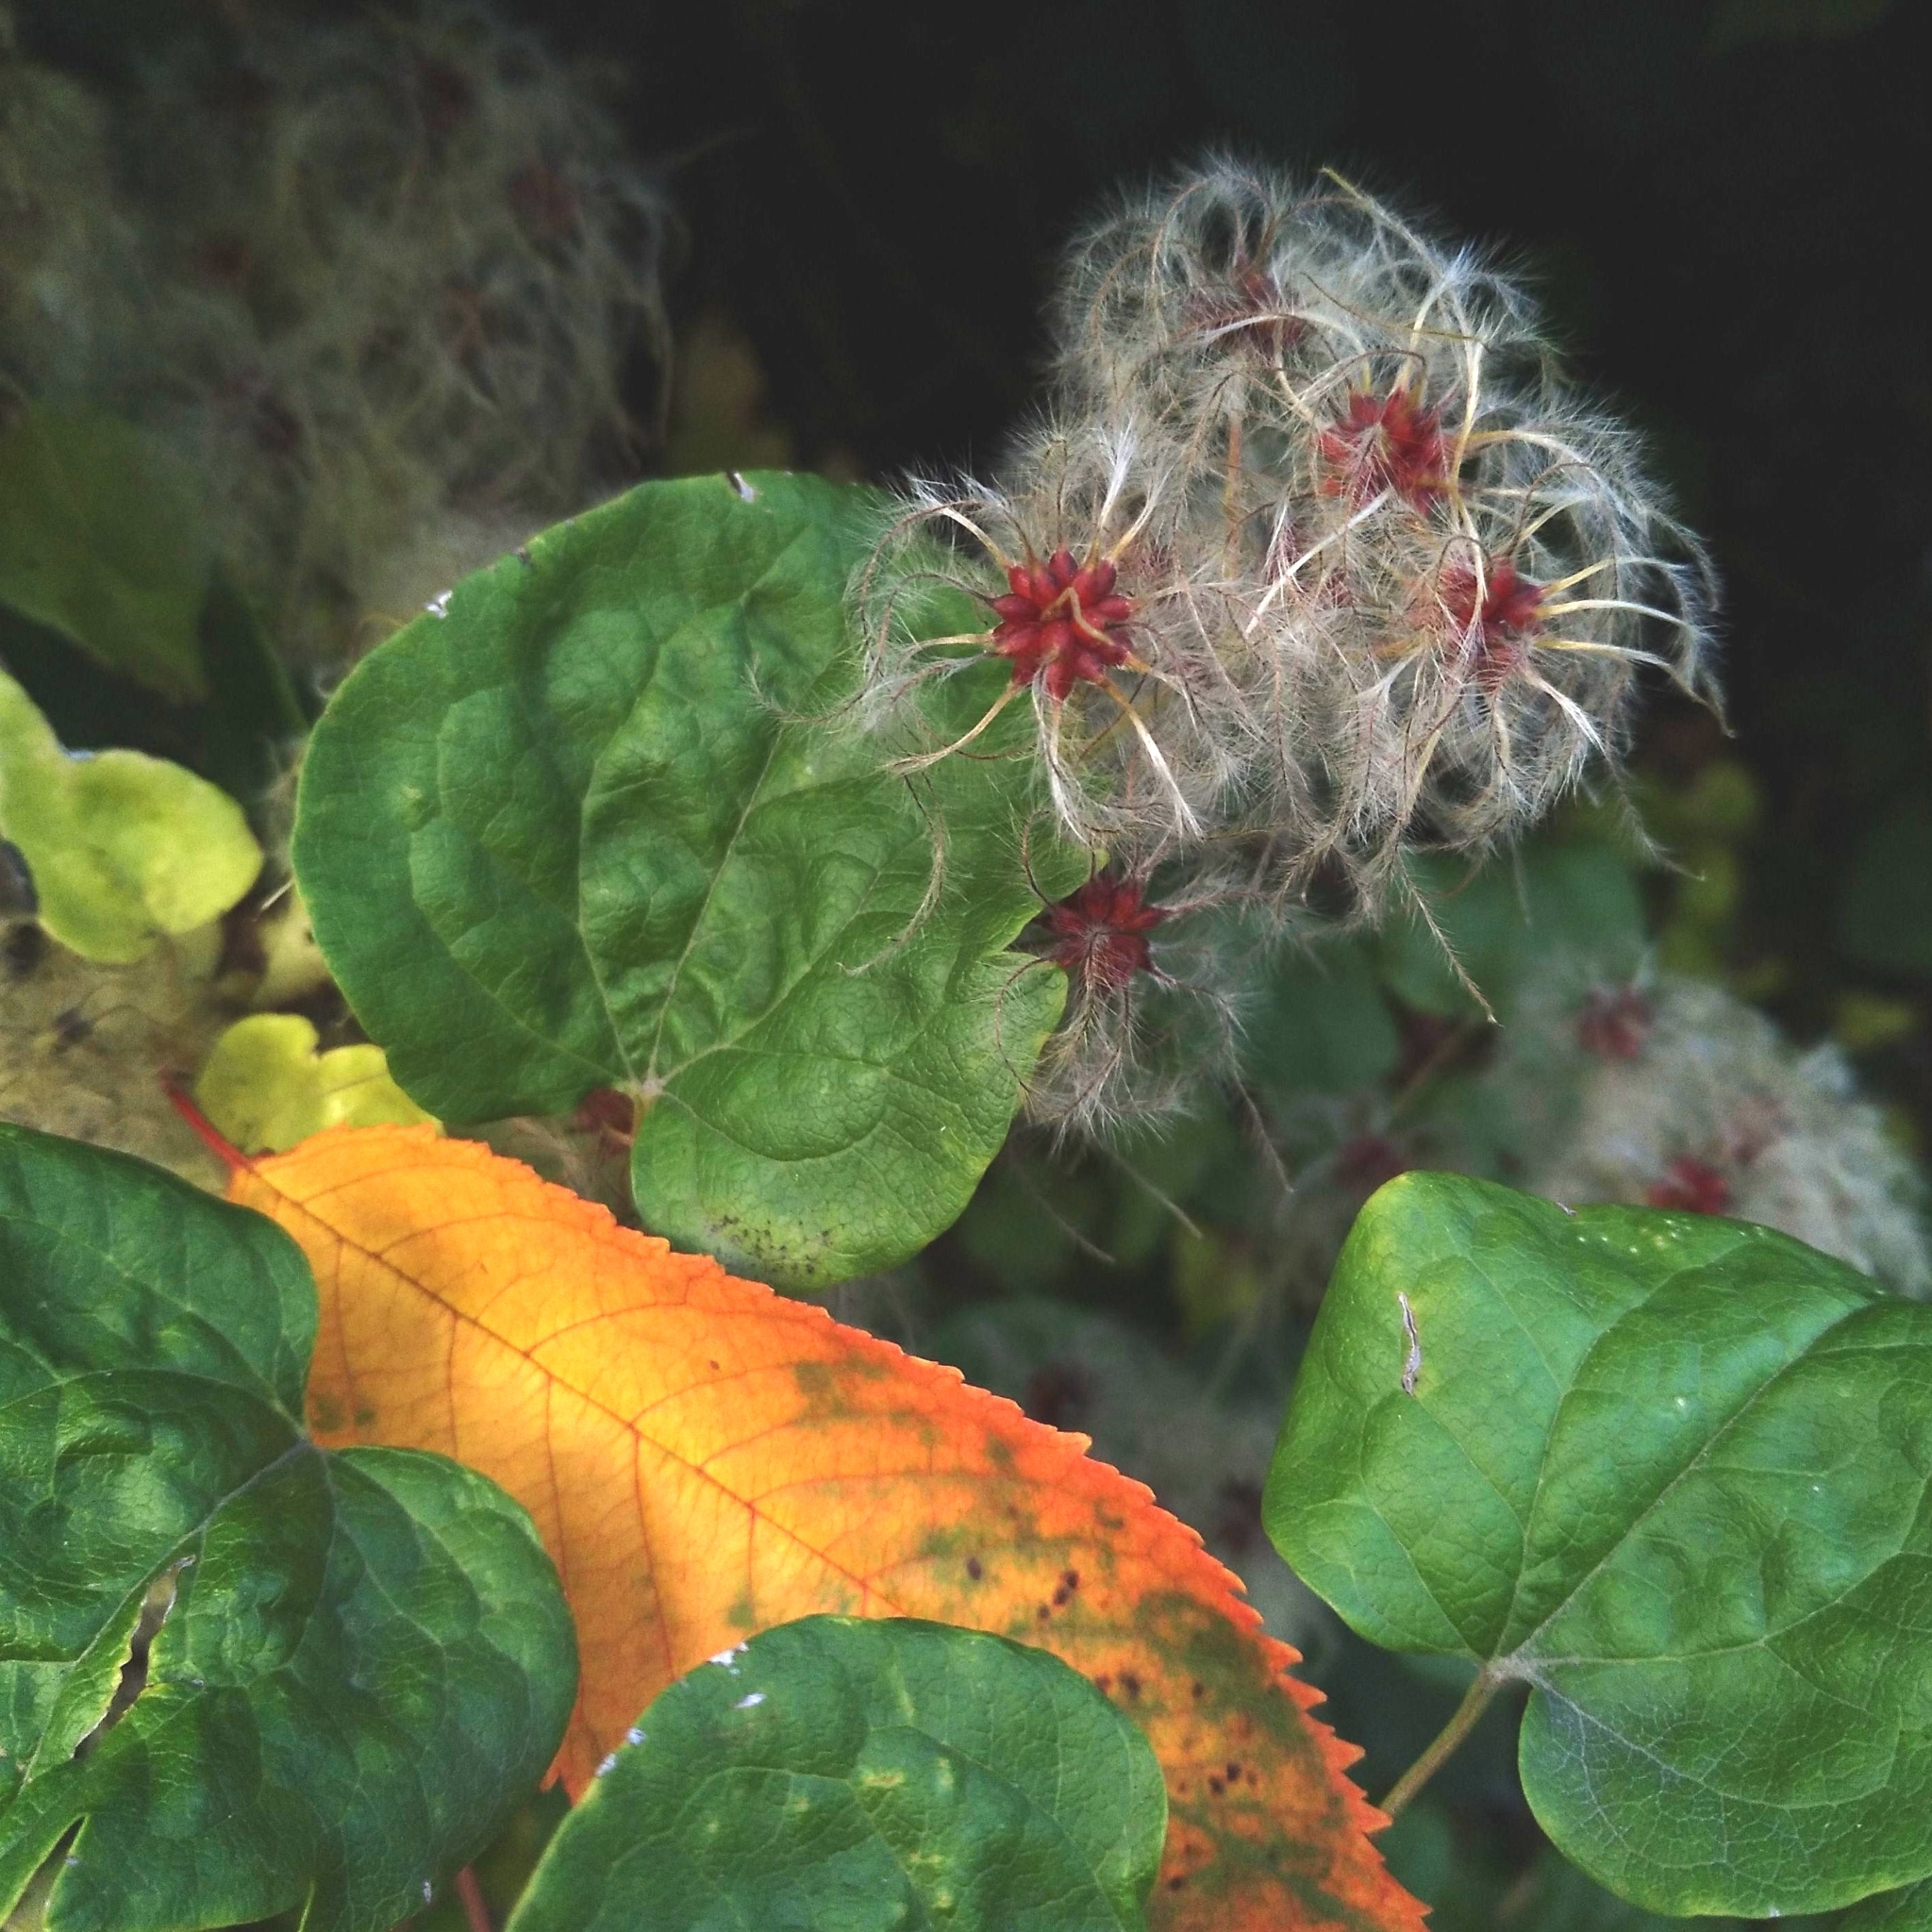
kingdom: Plantae
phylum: Tracheophyta
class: Magnoliopsida
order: Ranunculales
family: Ranunculaceae
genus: Clematis
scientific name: Clematis vitalba
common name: Evergreen clematis
